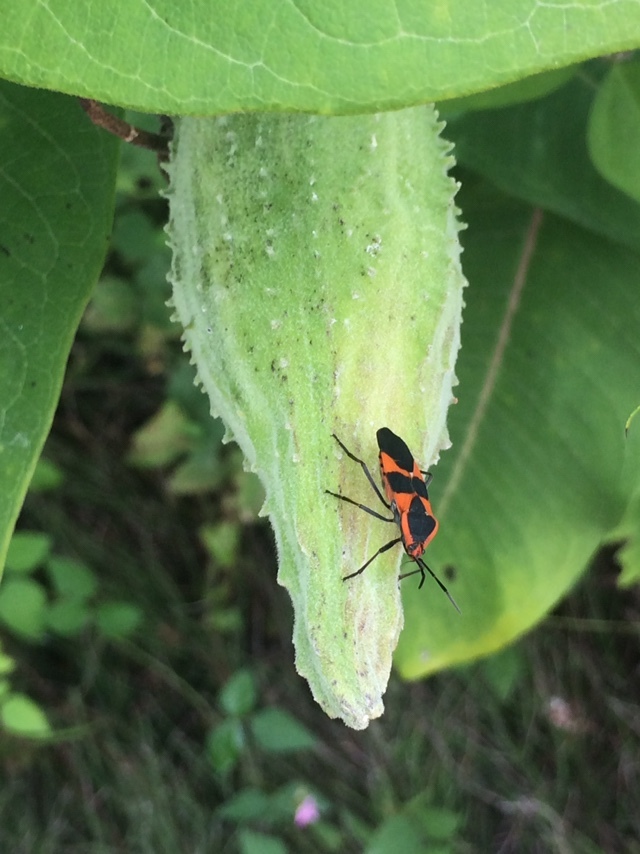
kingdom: Animalia
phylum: Arthropoda
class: Insecta
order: Hemiptera
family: Lygaeidae
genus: Oncopeltus
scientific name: Oncopeltus fasciatus
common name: Large milkweed bug
